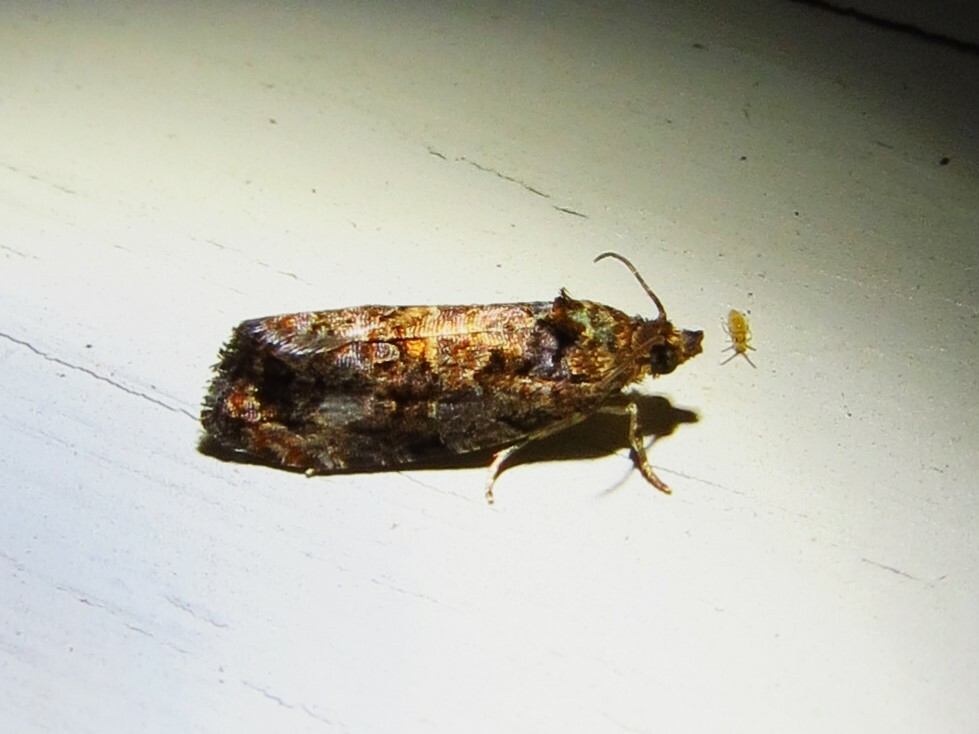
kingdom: Animalia
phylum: Arthropoda
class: Insecta
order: Lepidoptera
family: Tortricidae
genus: Endothenia
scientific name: Endothenia hebesana
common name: Verbena bud moth
